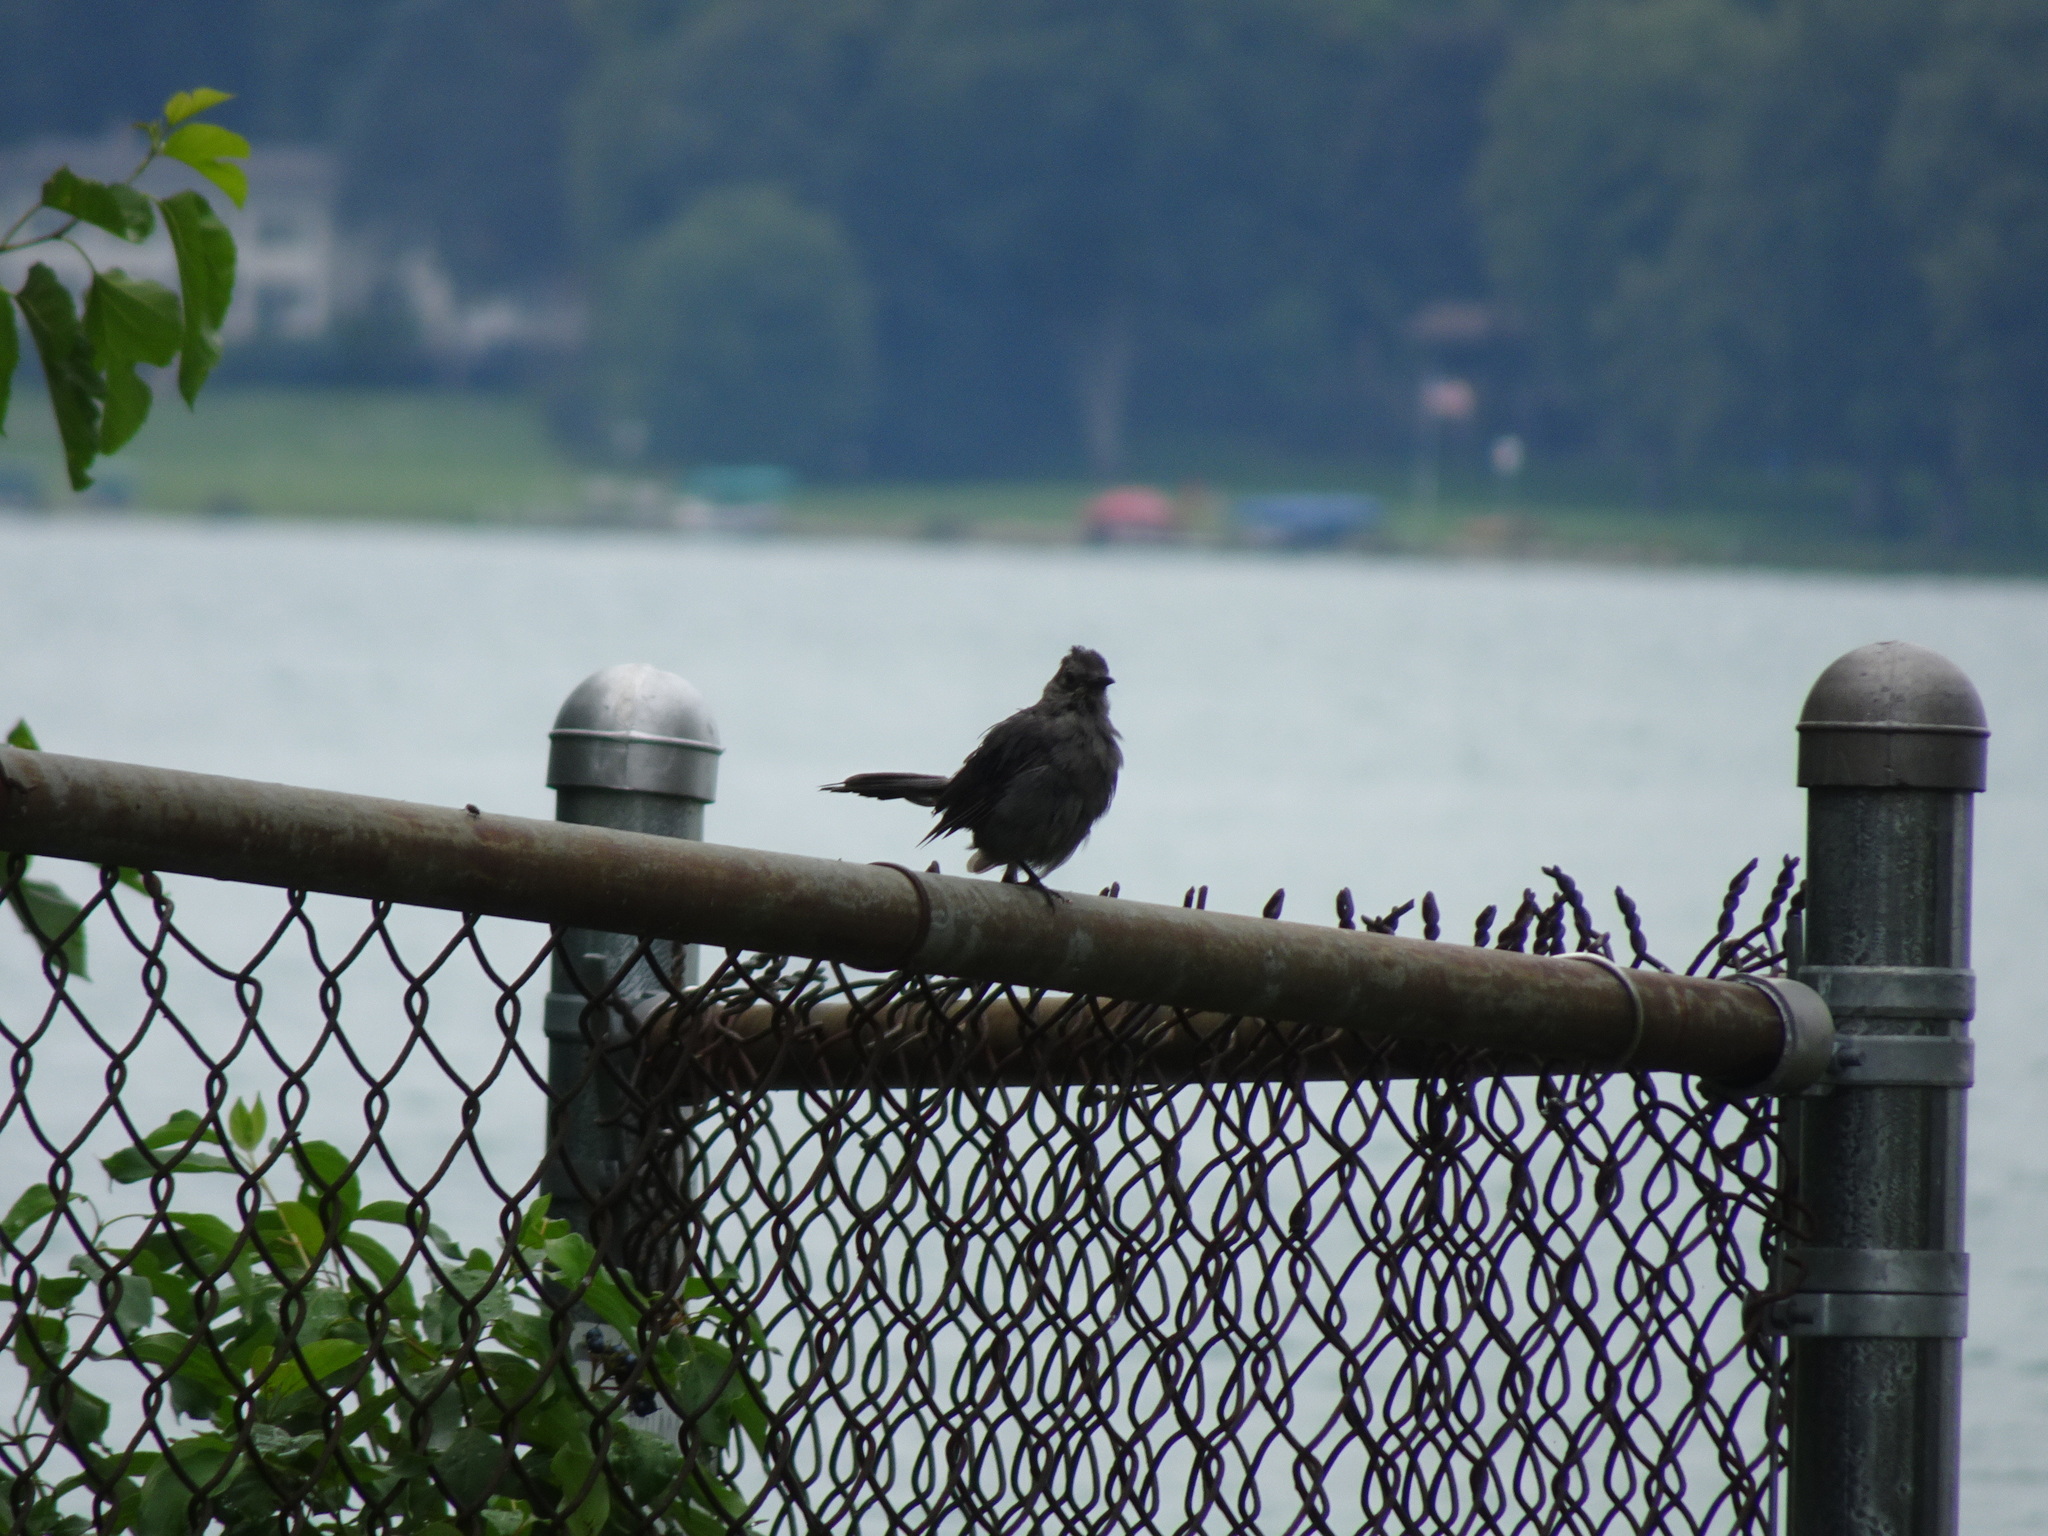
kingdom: Animalia
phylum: Chordata
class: Aves
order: Passeriformes
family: Mimidae
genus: Dumetella
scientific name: Dumetella carolinensis
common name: Gray catbird
